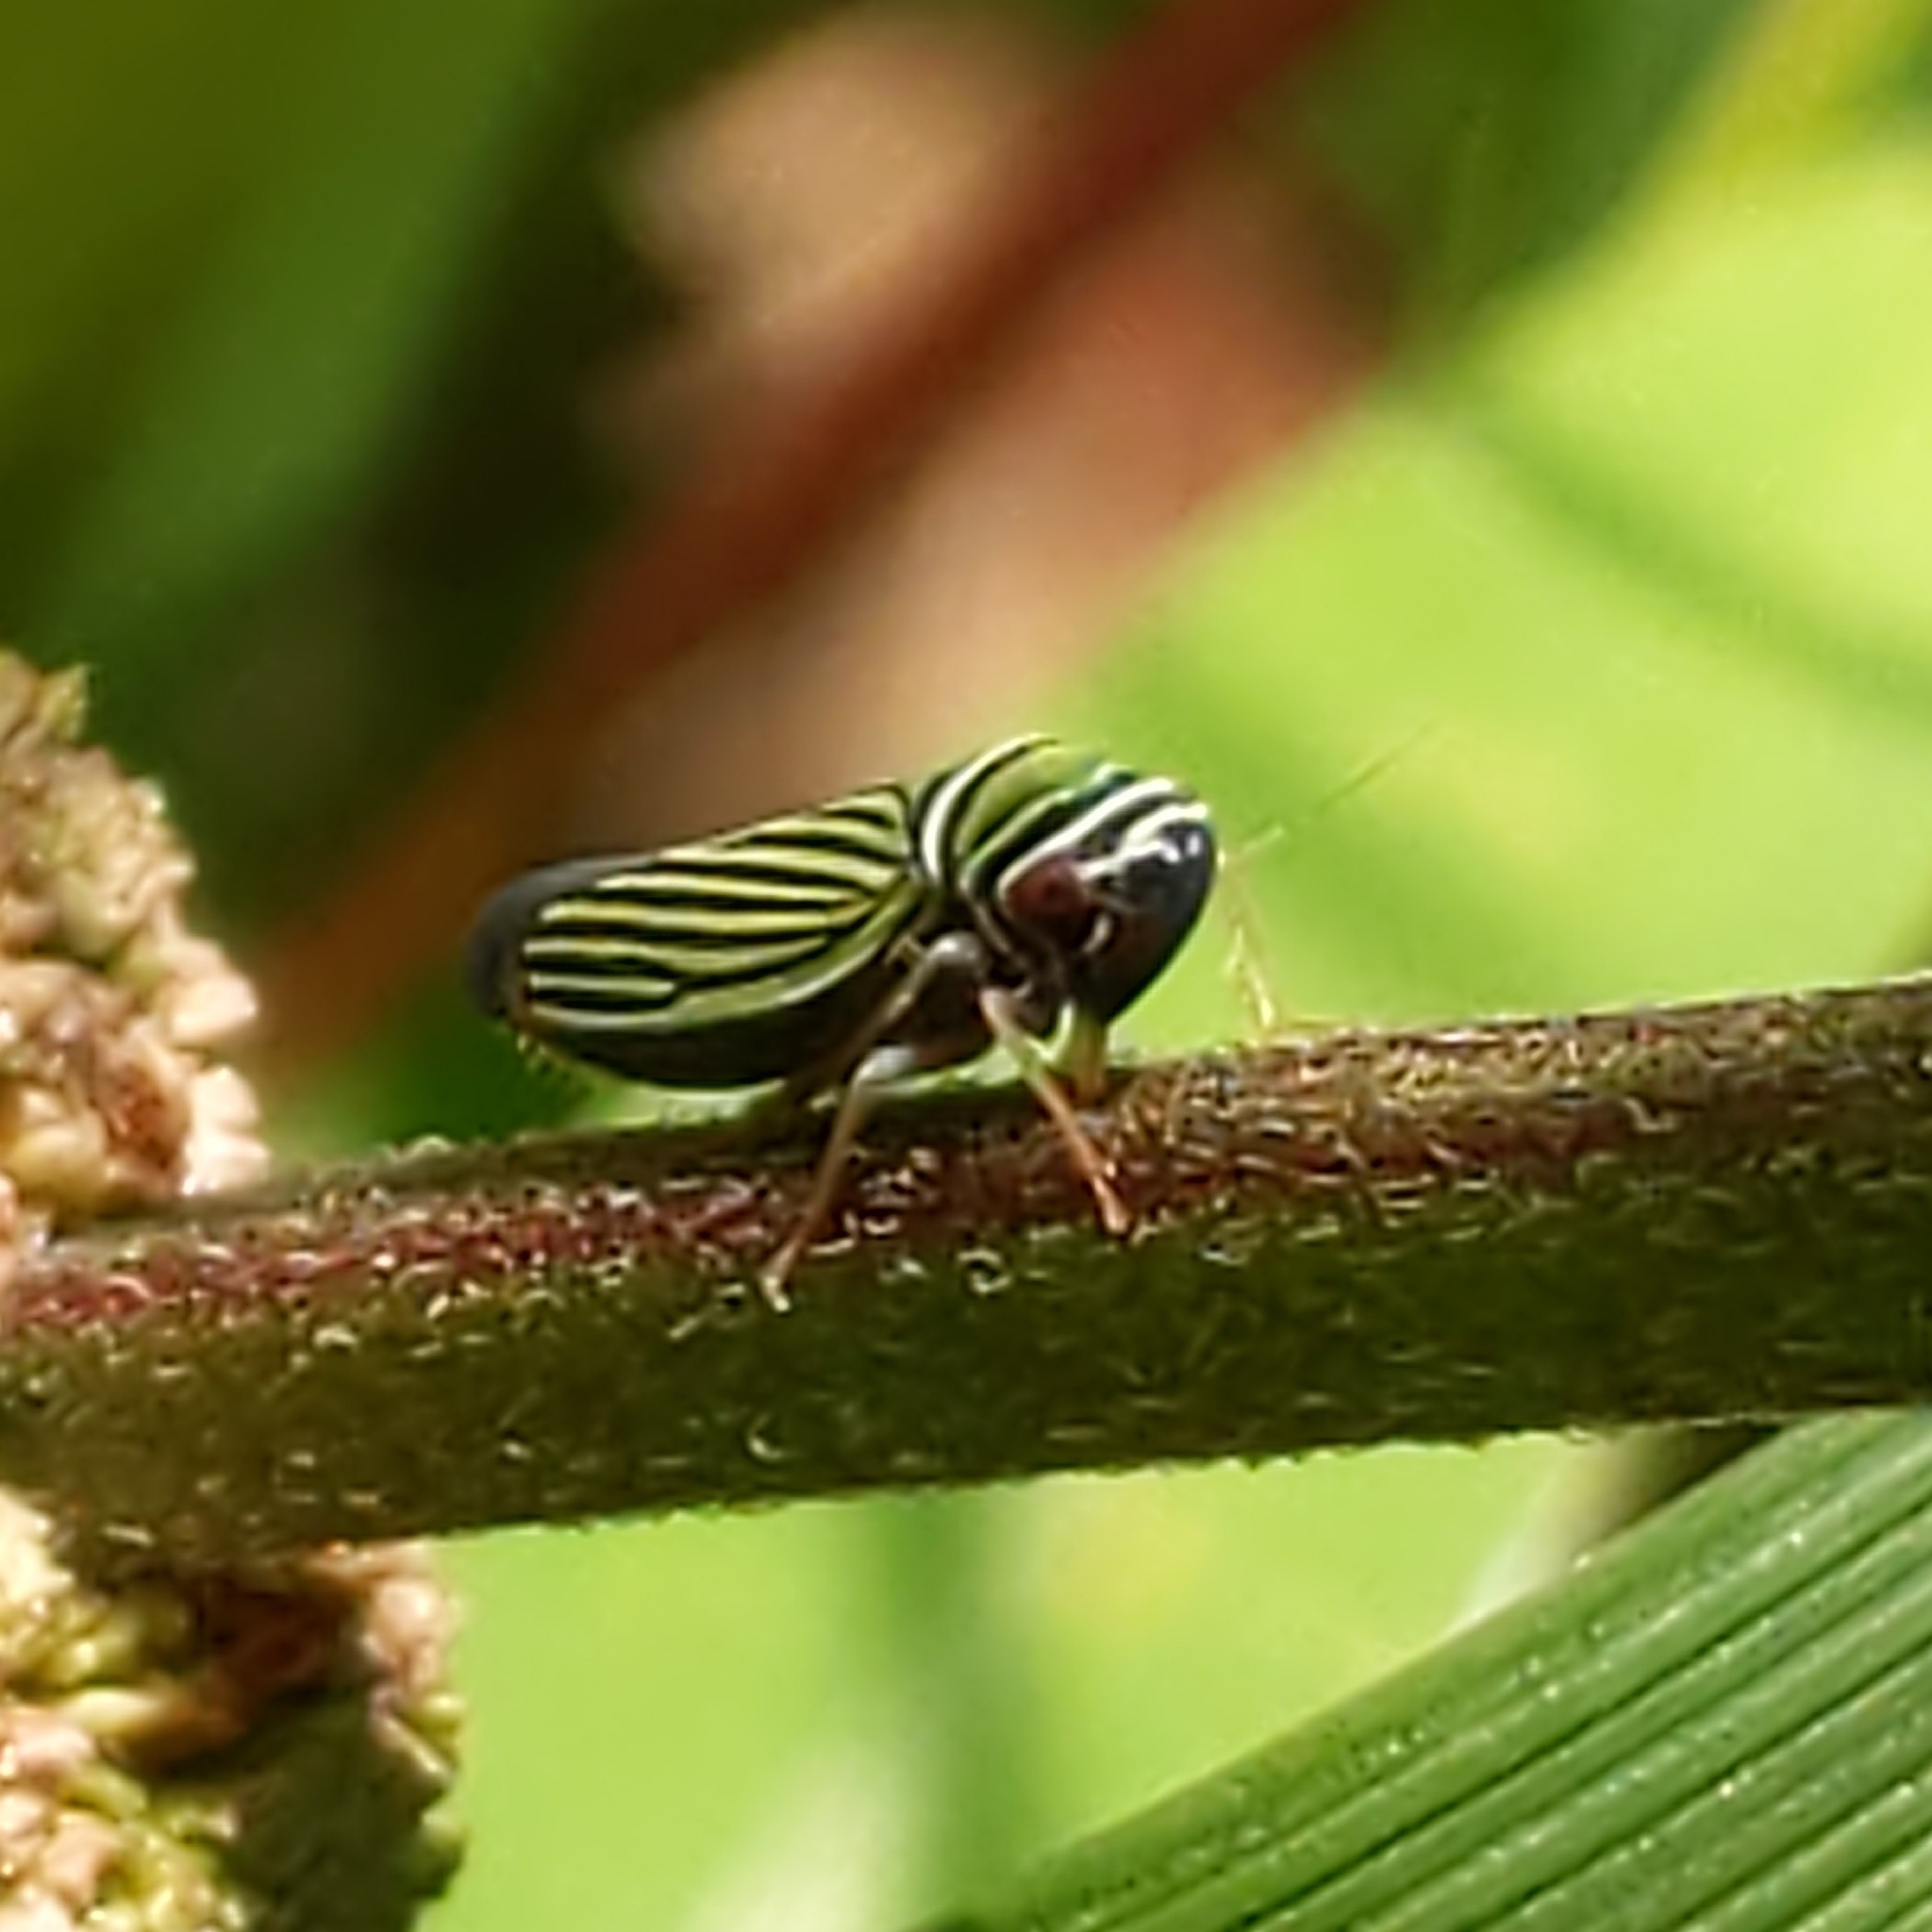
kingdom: Animalia
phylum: Arthropoda
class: Insecta
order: Hemiptera
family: Cicadellidae
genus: Tylozygus
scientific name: Tylozygus bifidus
